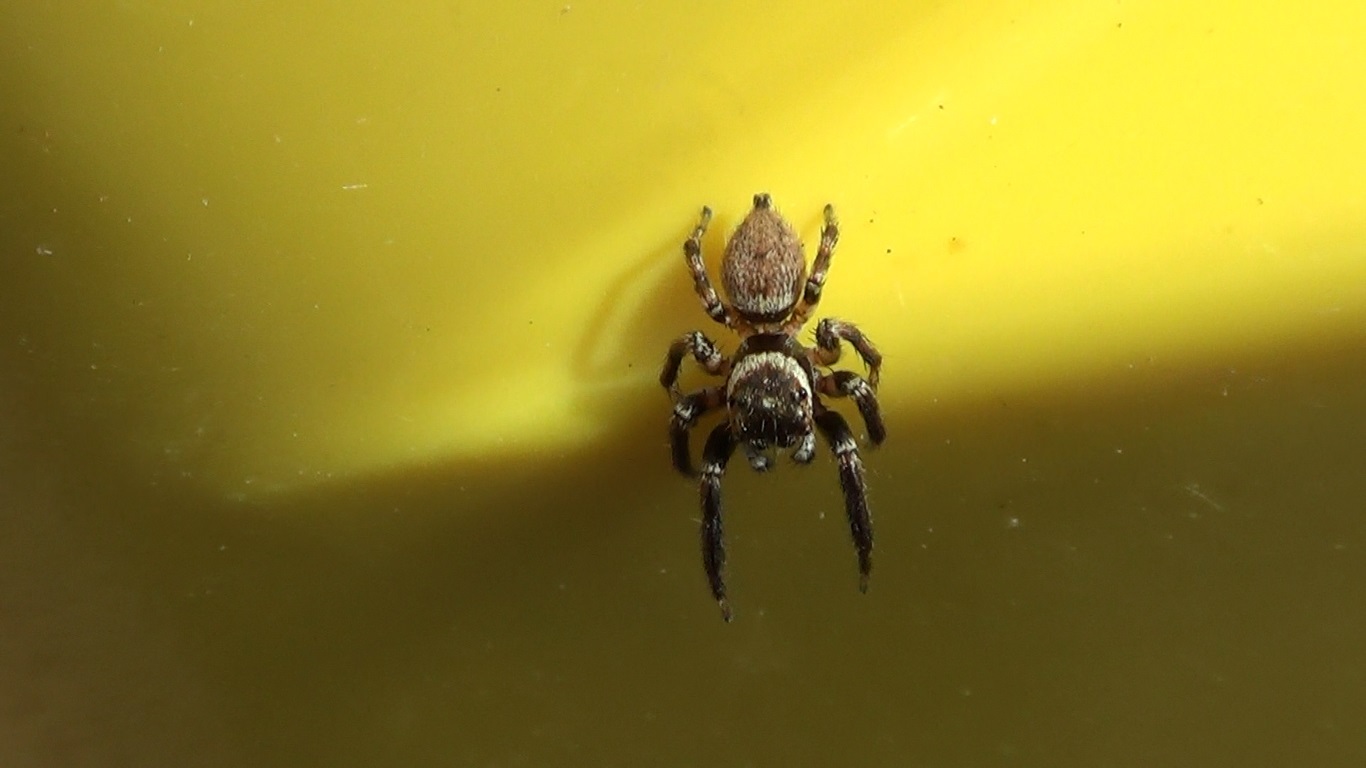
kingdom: Animalia
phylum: Arthropoda
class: Arachnida
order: Araneae
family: Salticidae
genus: Evarcha
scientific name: Evarcha jucunda
